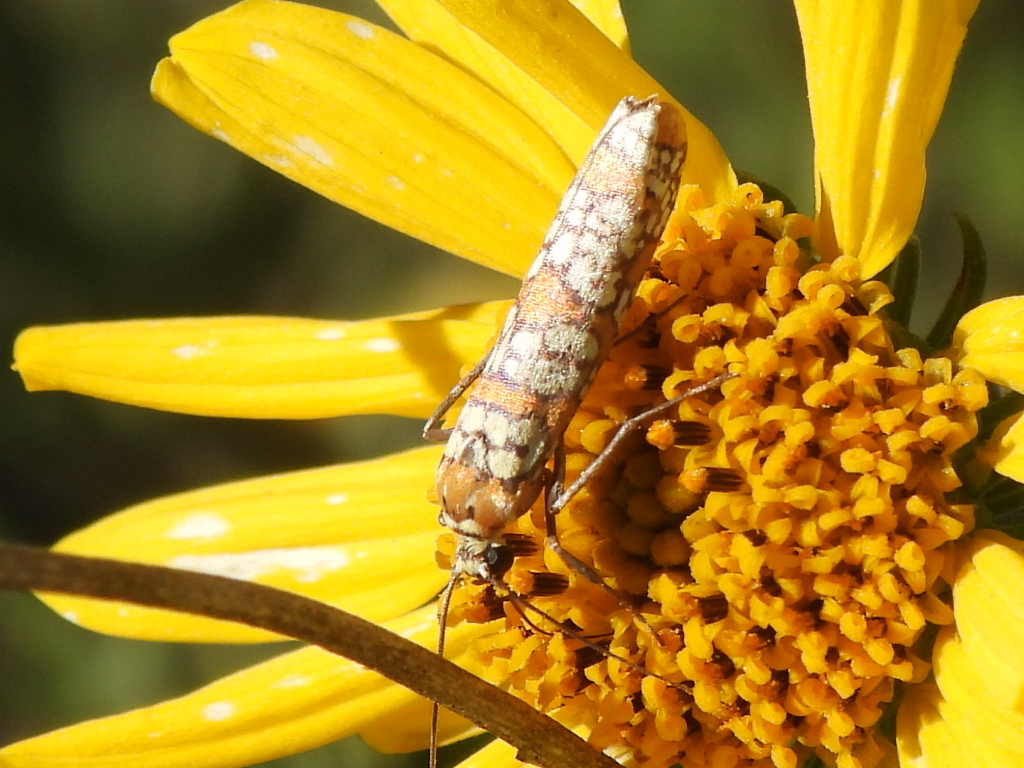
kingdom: Animalia
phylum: Arthropoda
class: Insecta
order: Lepidoptera
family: Attevidae
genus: Atteva
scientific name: Atteva punctella
